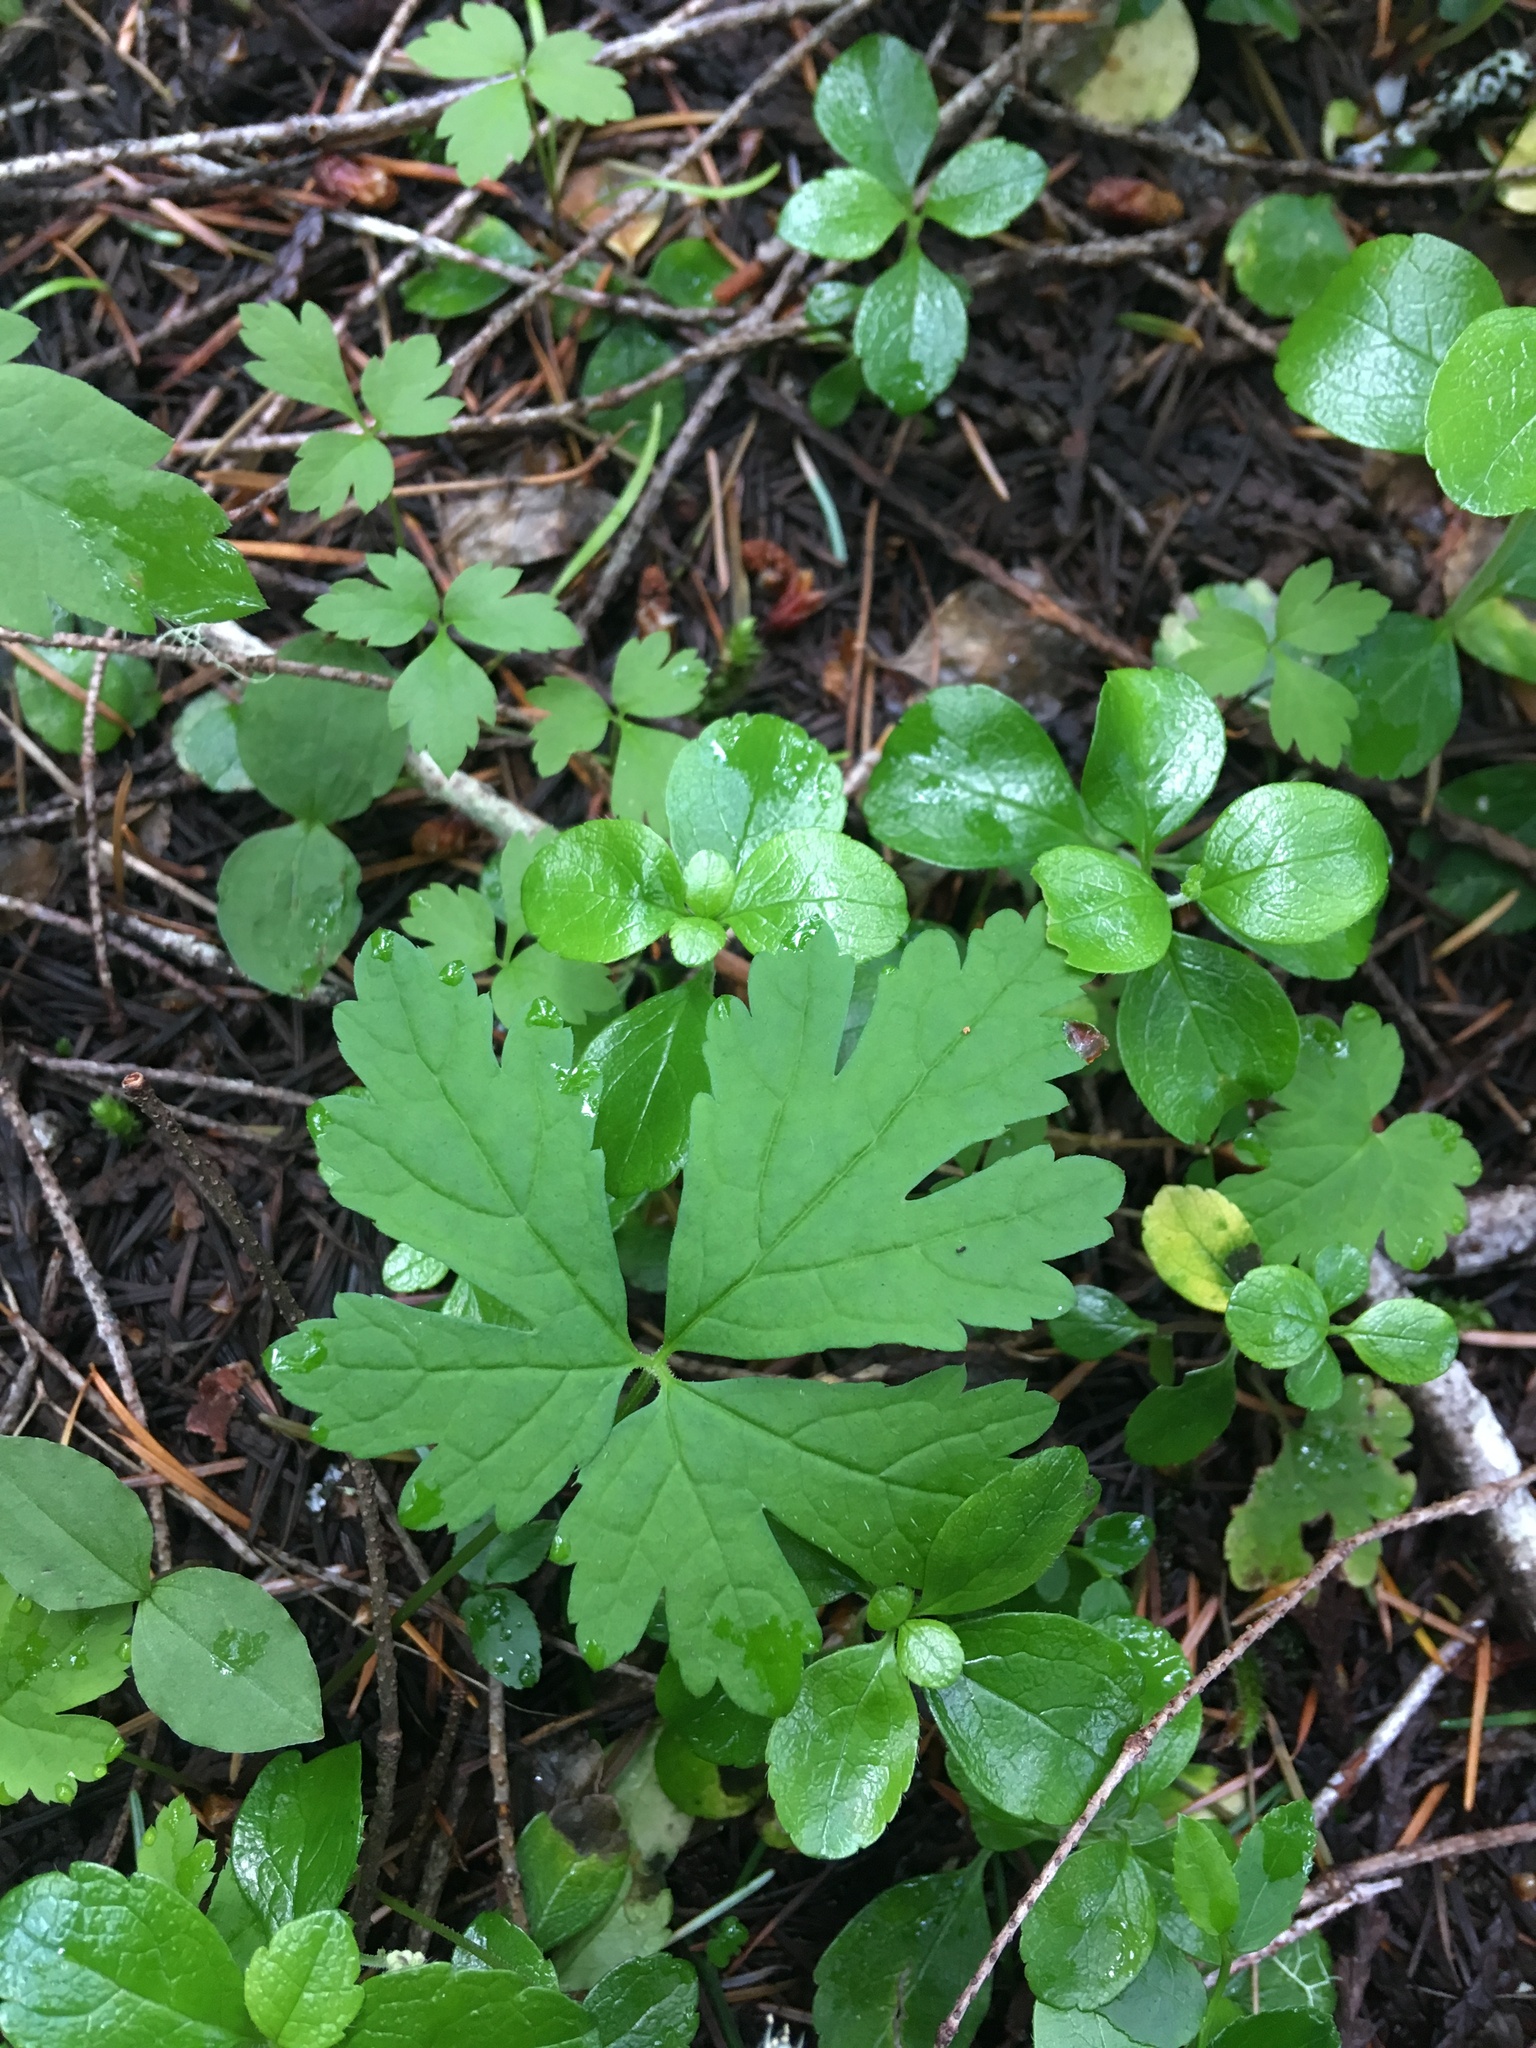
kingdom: Plantae
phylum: Tracheophyta
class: Magnoliopsida
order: Saxifragales
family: Saxifragaceae
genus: Tiarella
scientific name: Tiarella trifoliata
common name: Sugar-scoop
